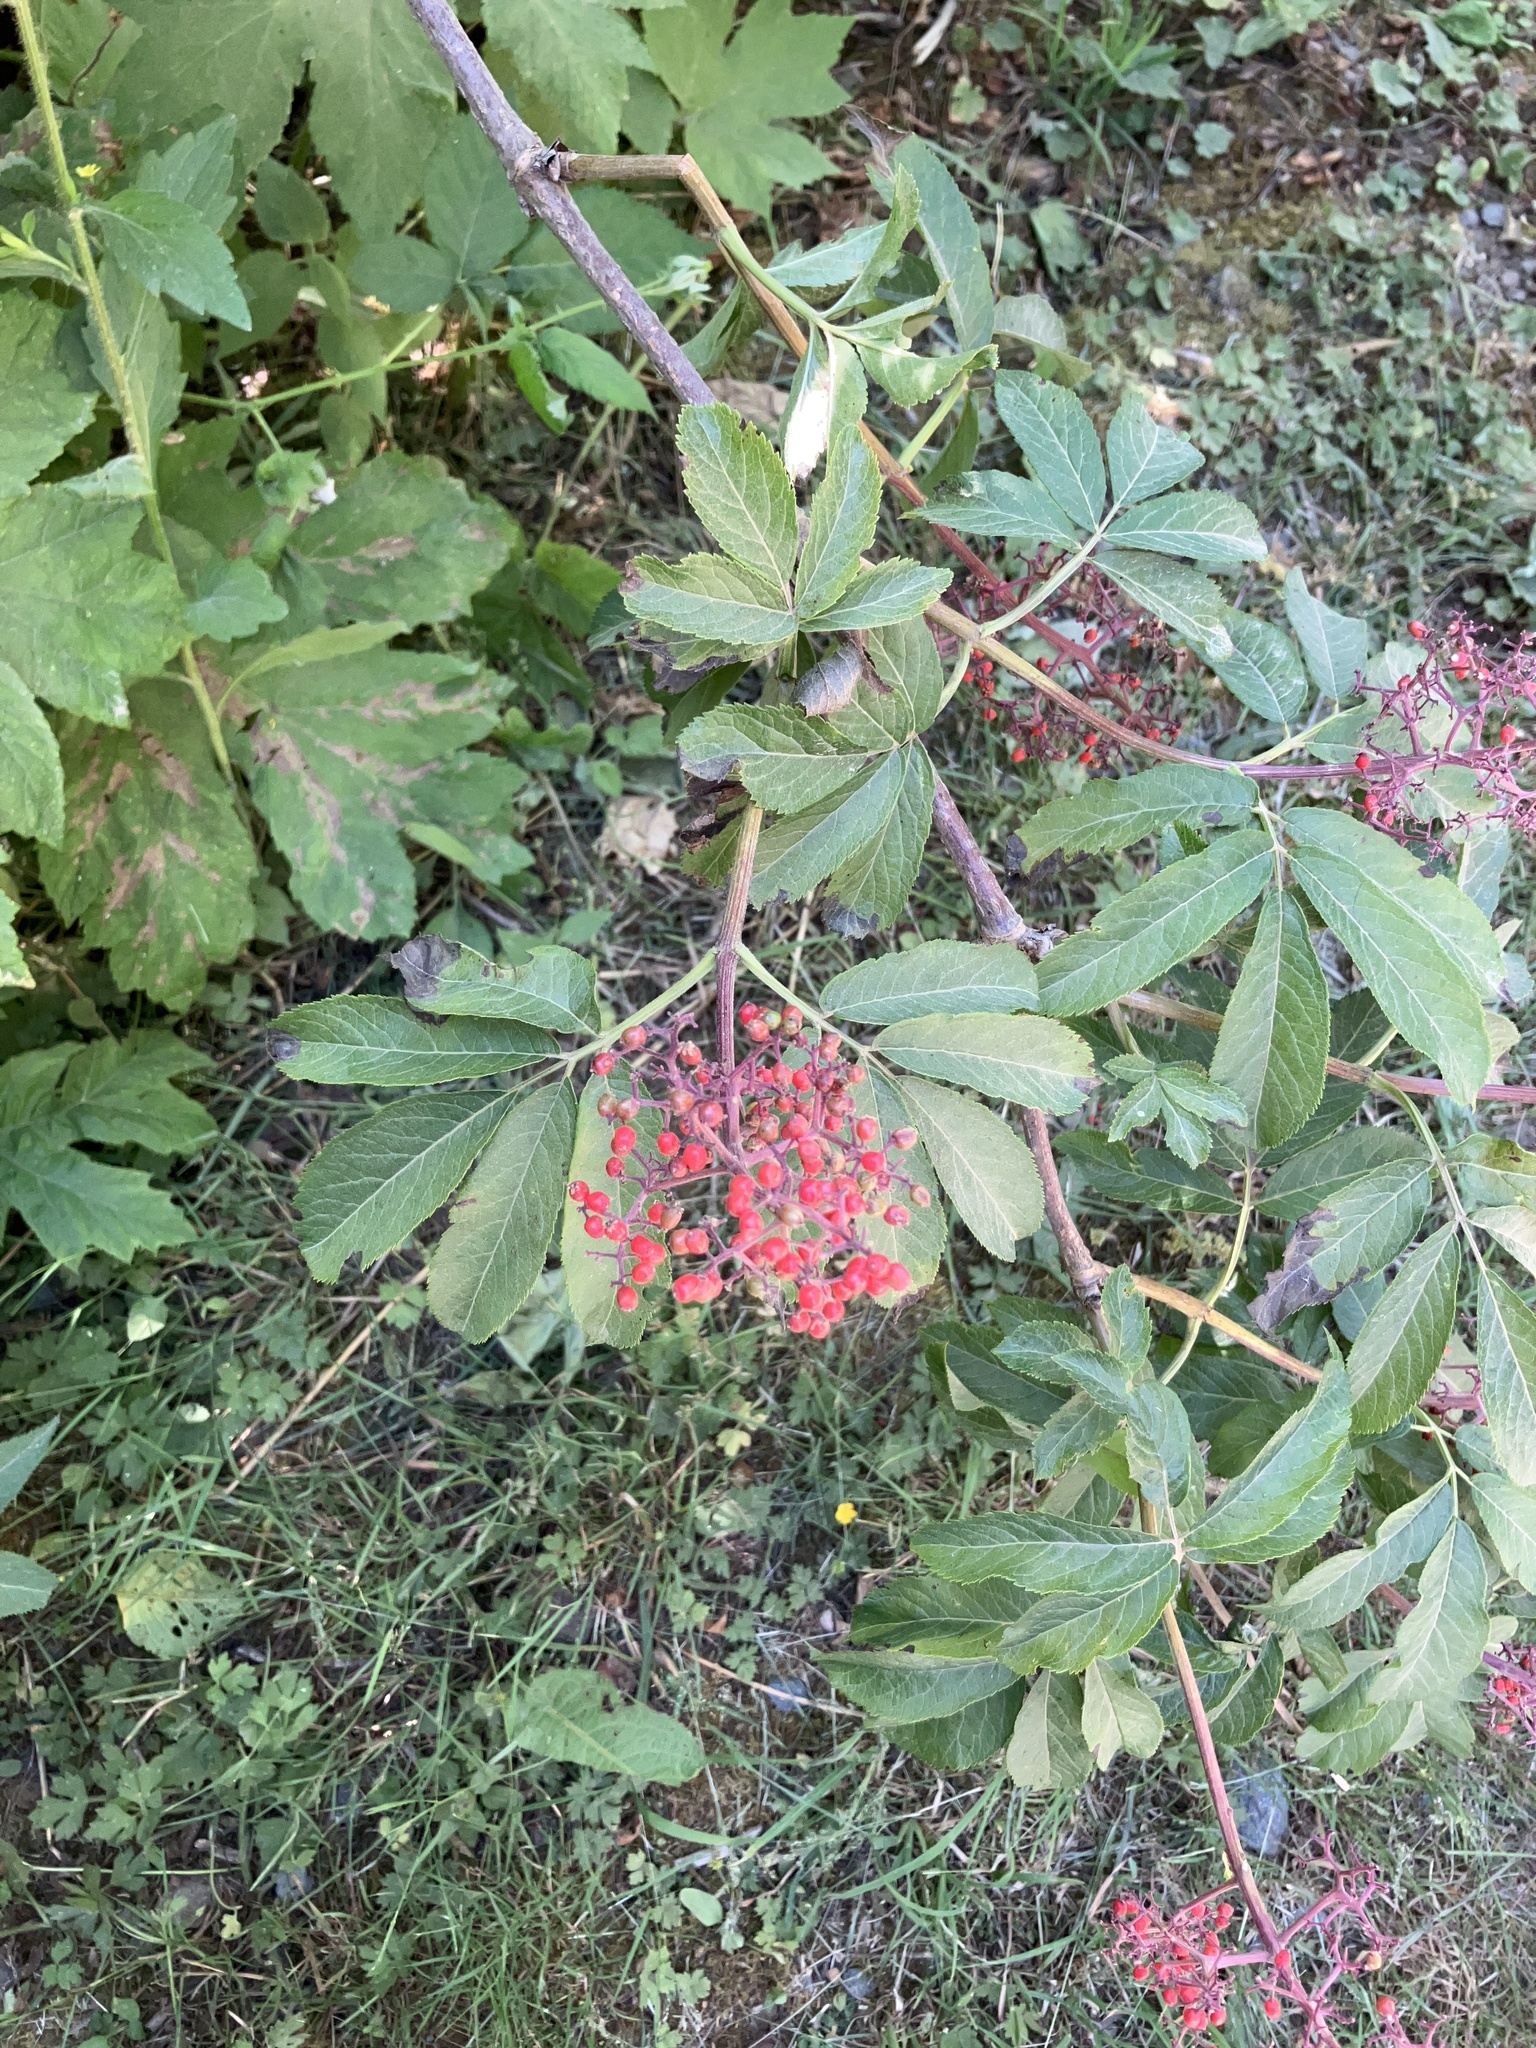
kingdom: Plantae
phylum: Tracheophyta
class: Magnoliopsida
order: Dipsacales
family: Viburnaceae
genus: Sambucus
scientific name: Sambucus racemosa
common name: Red-berried elder
